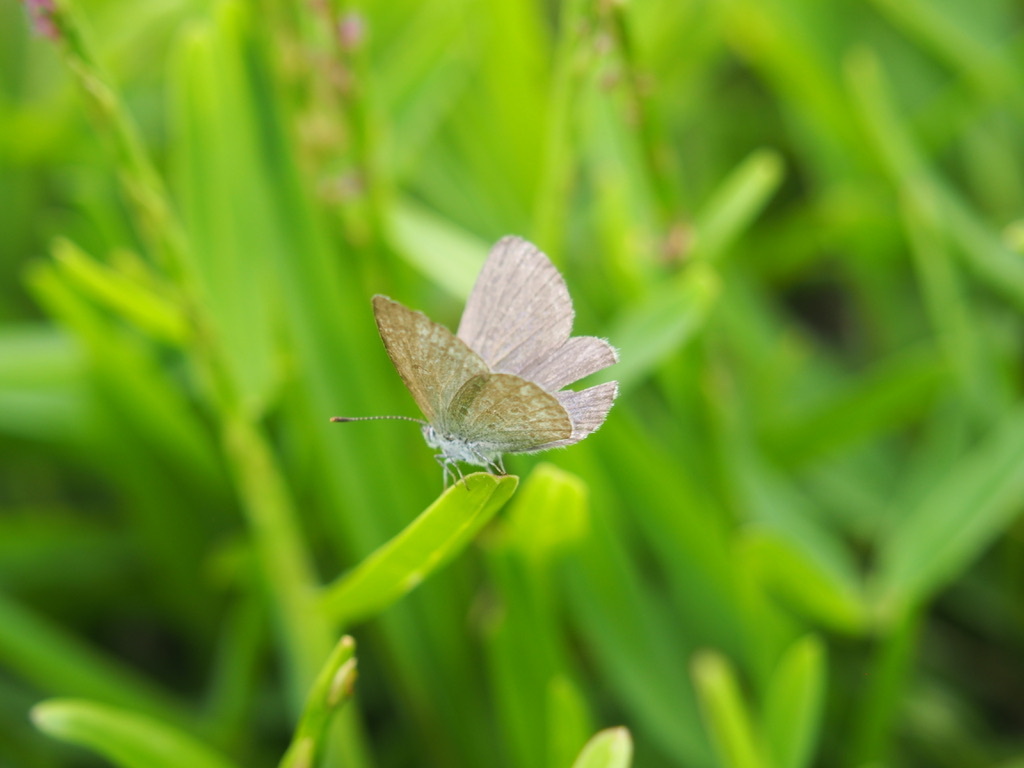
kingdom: Animalia
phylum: Arthropoda
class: Insecta
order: Lepidoptera
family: Lycaenidae
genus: Zizina
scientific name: Zizina otis
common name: Lesser grass blue
